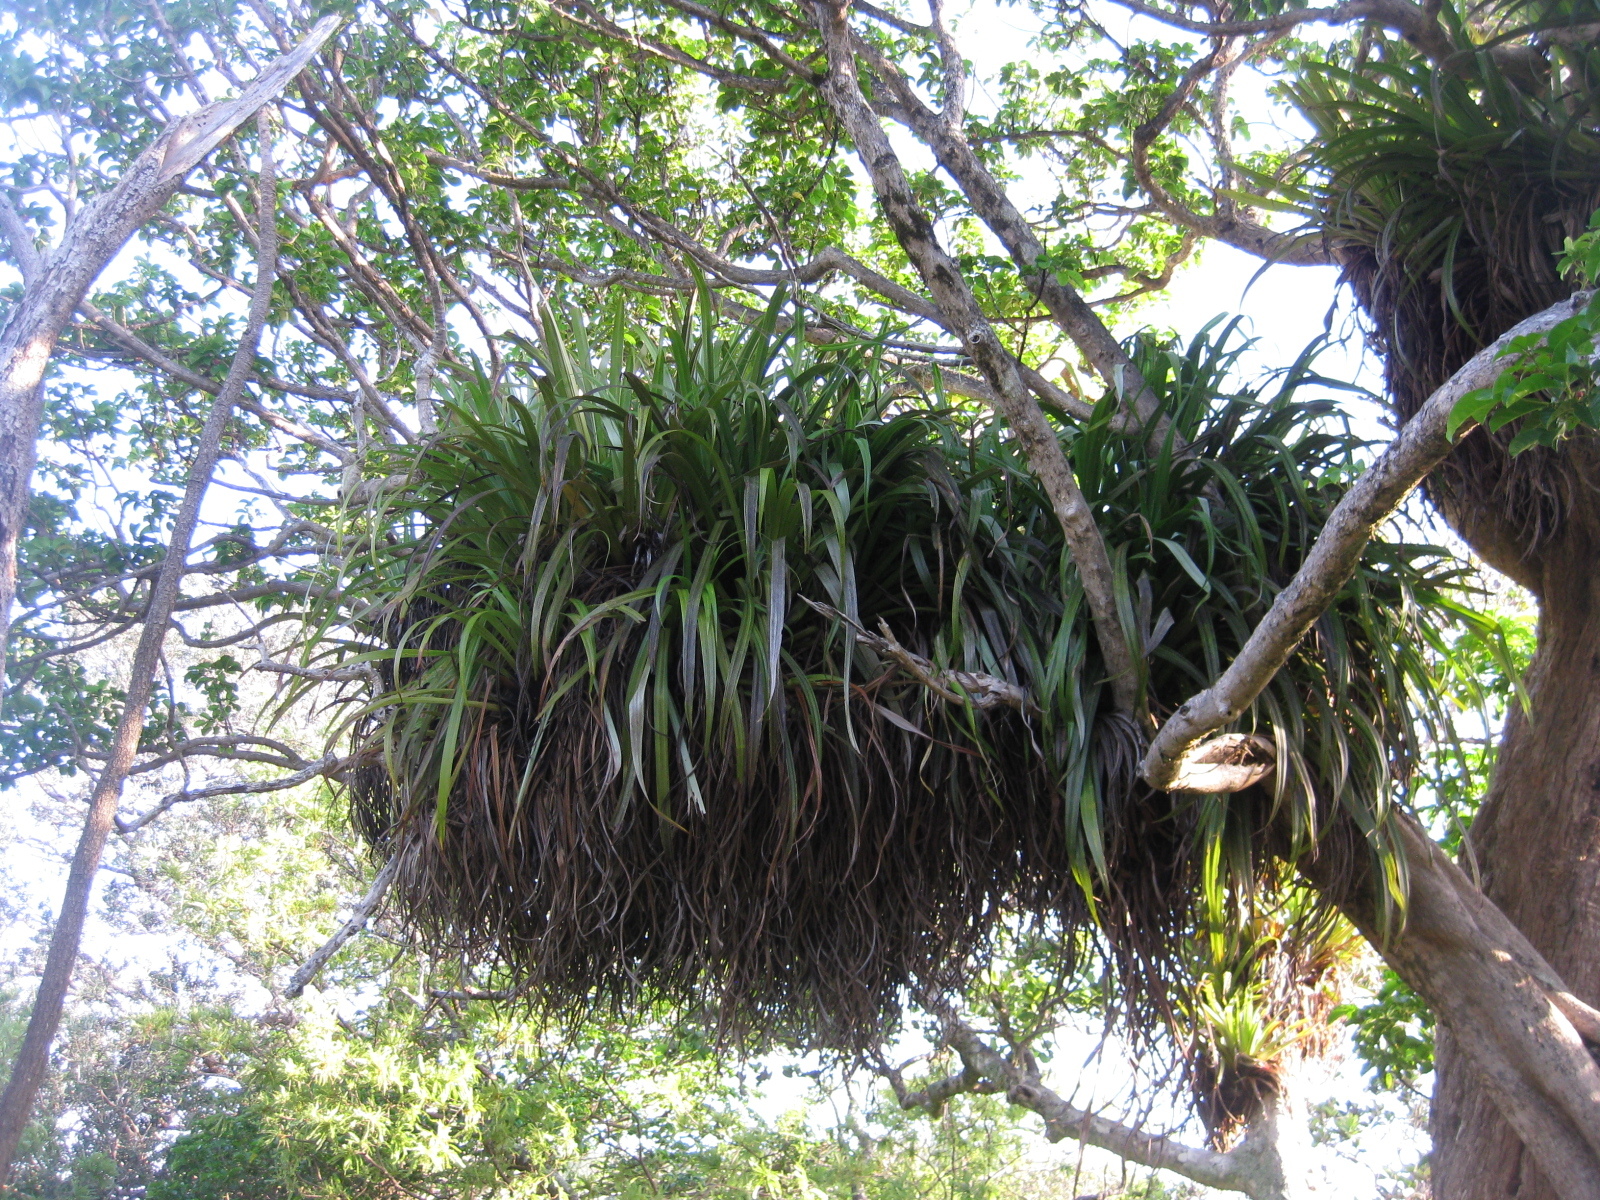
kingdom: Plantae
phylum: Tracheophyta
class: Liliopsida
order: Asparagales
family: Asteliaceae
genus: Astelia
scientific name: Astelia hastata
